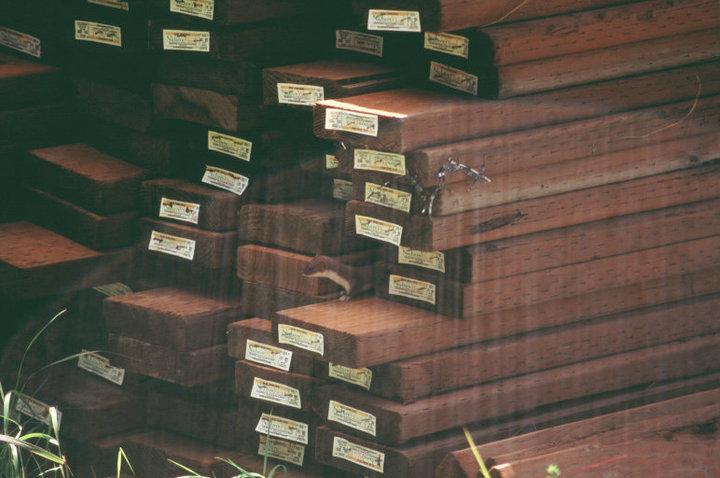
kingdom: Animalia
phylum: Chordata
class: Mammalia
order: Carnivora
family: Mustelidae
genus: Mustela
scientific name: Mustela nivalis
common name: Least weasel
